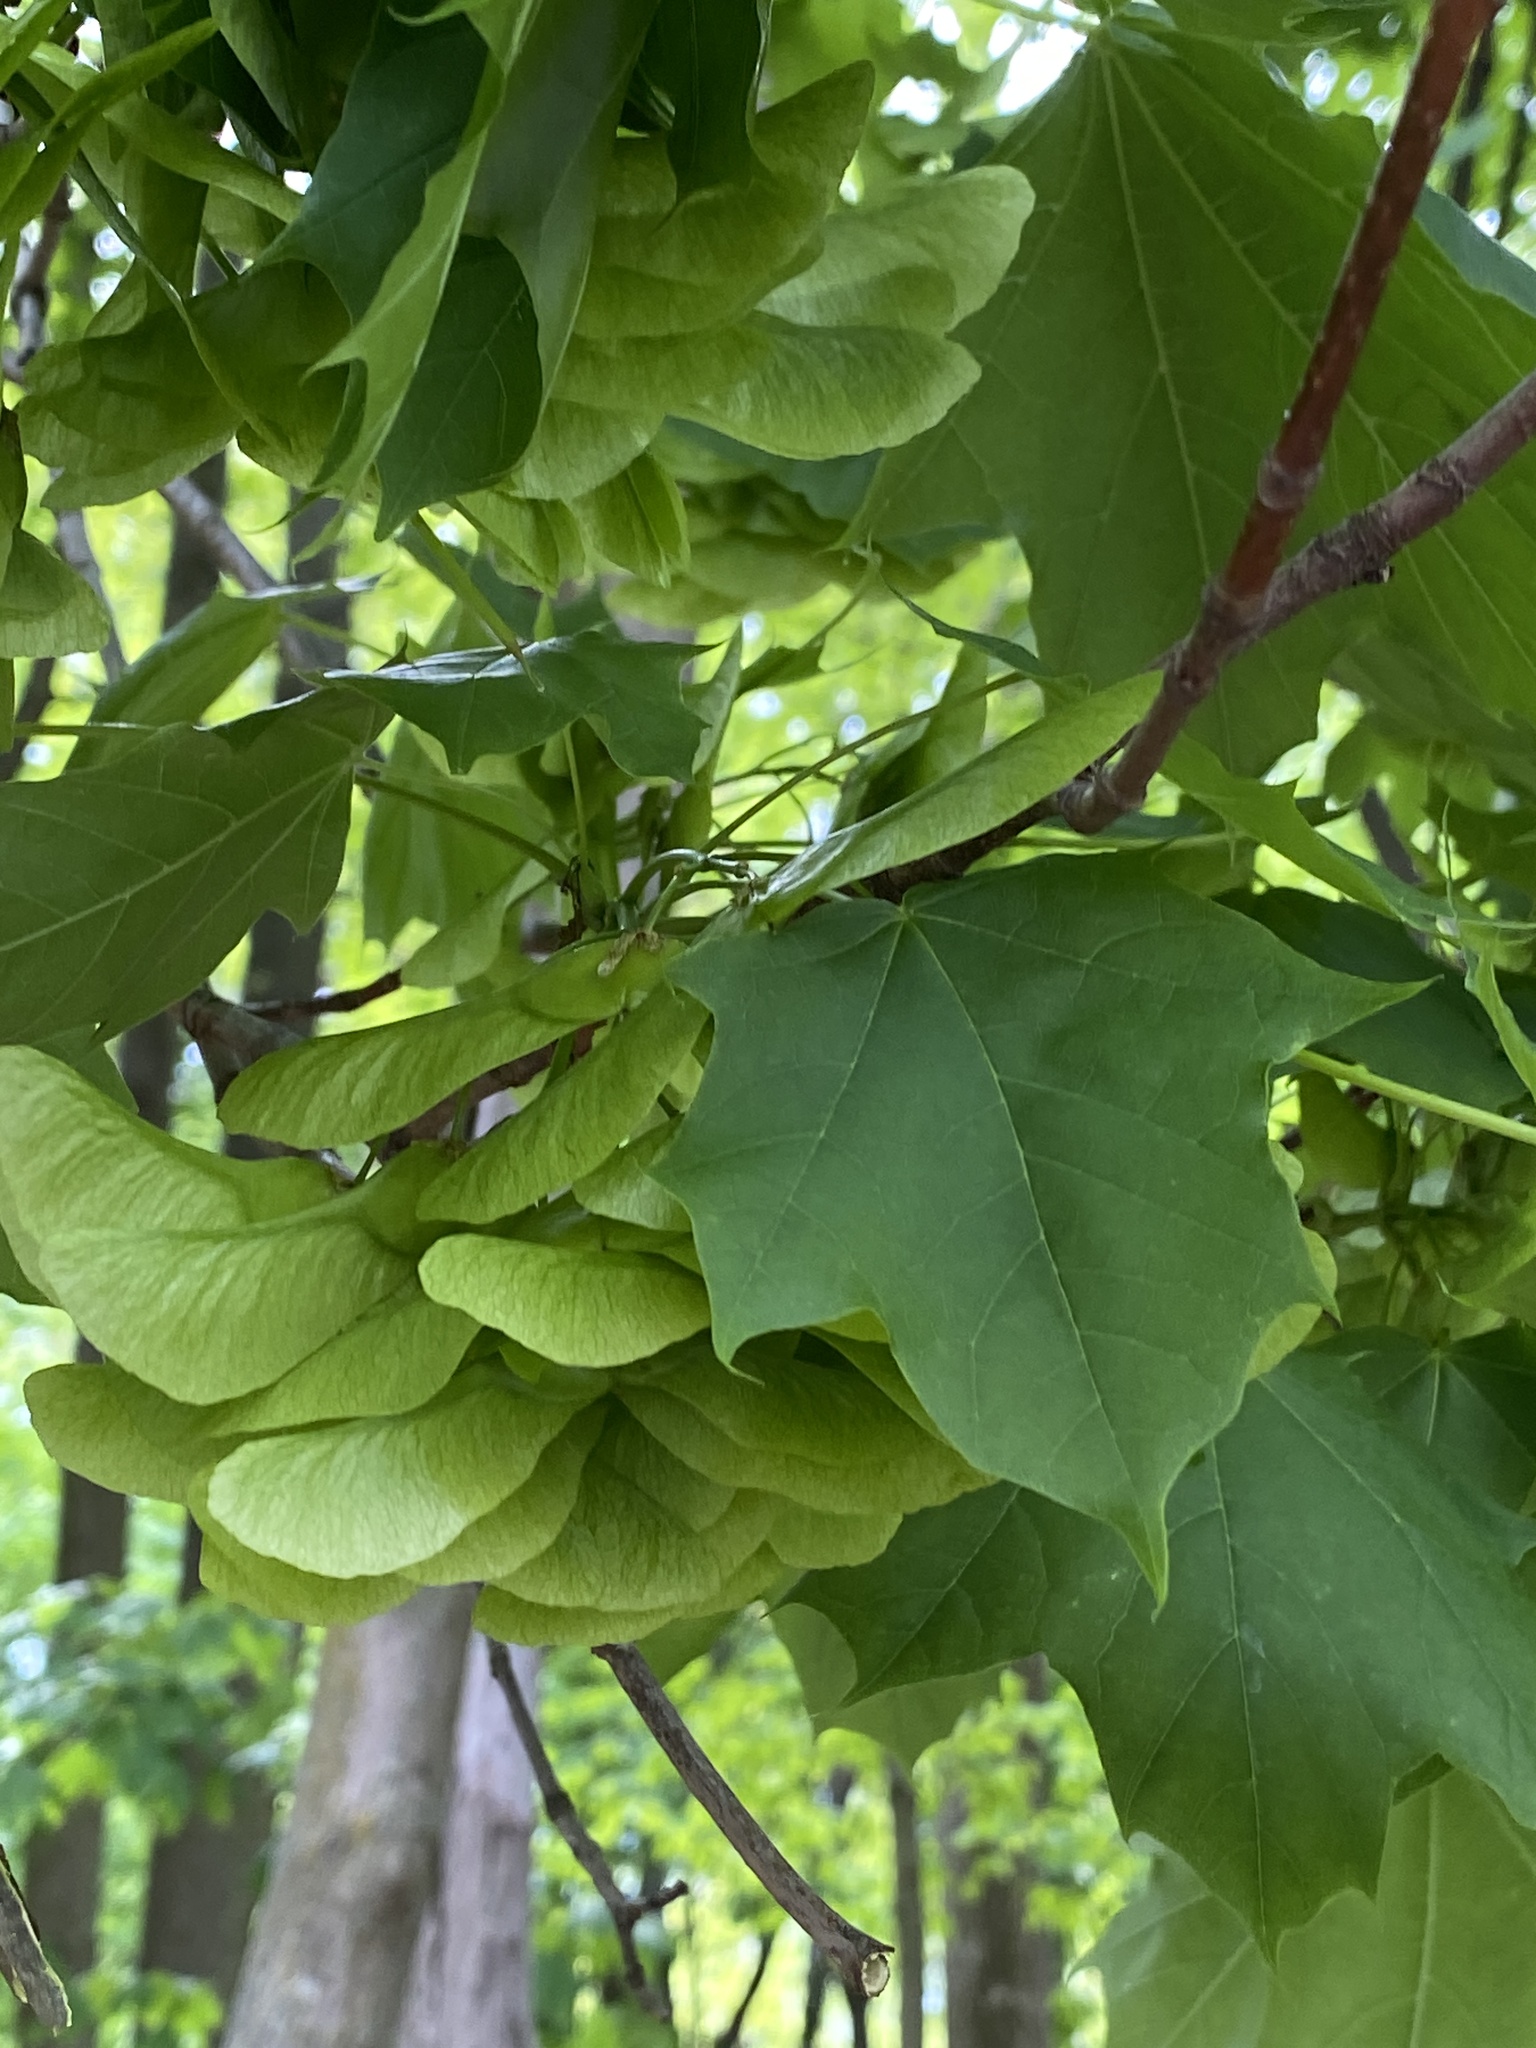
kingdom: Plantae
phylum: Tracheophyta
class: Magnoliopsida
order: Sapindales
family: Sapindaceae
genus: Acer
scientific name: Acer platanoides
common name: Norway maple
